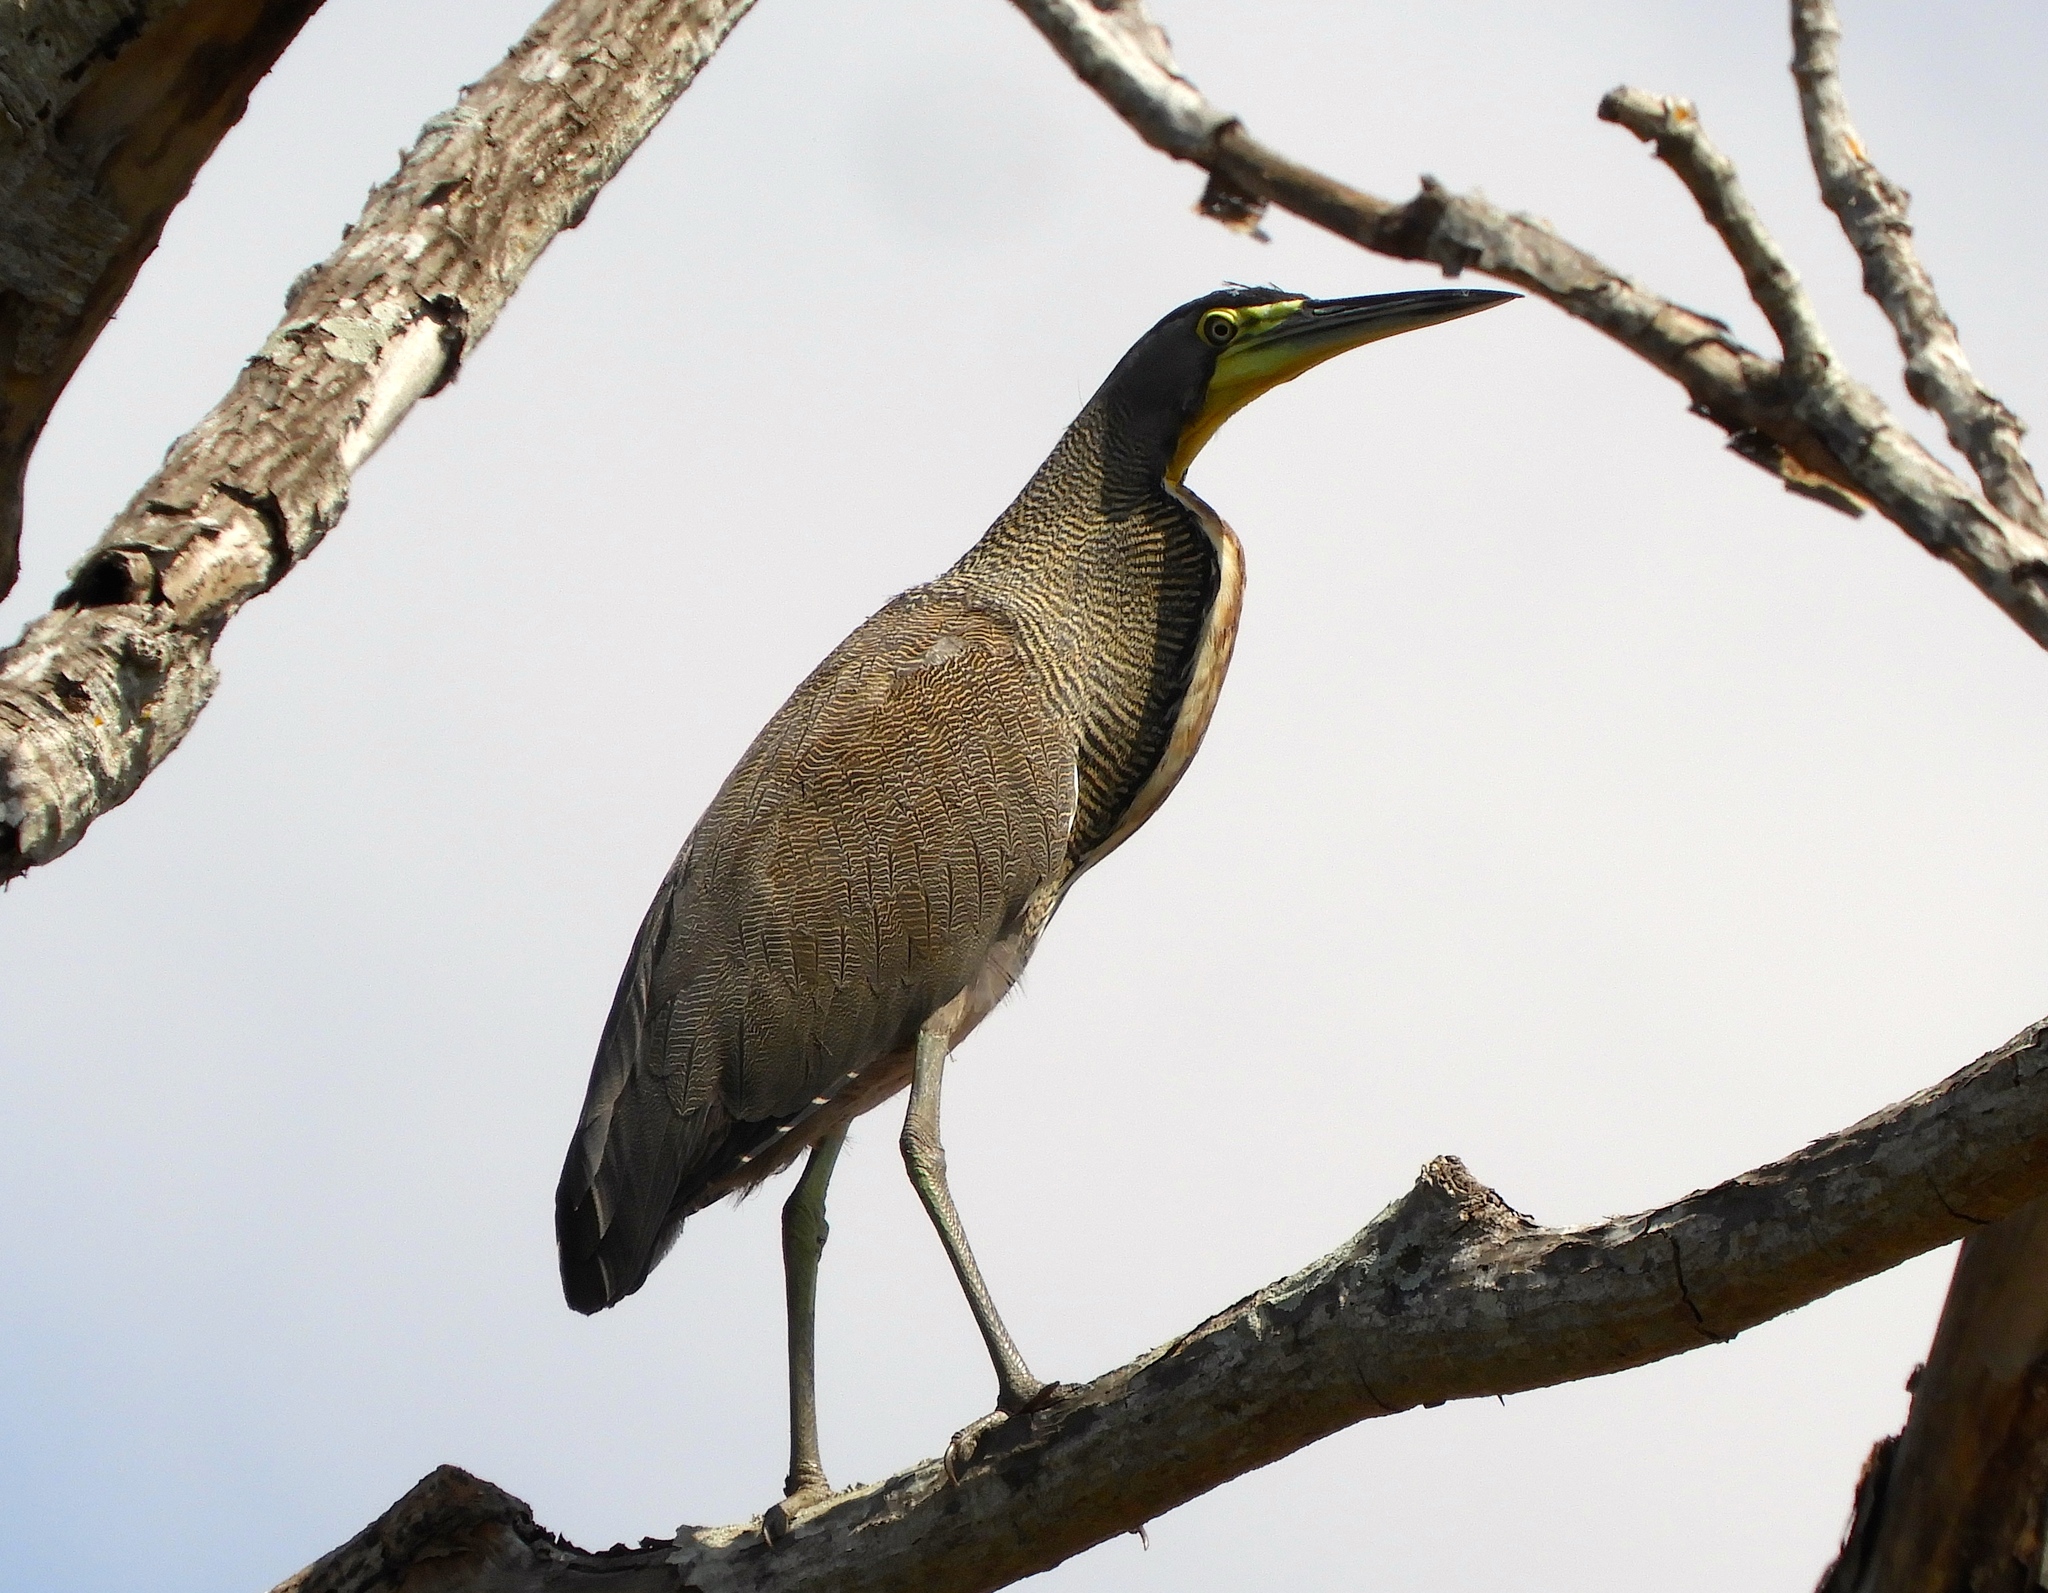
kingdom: Animalia
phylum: Chordata
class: Aves
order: Pelecaniformes
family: Ardeidae
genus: Tigrisoma
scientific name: Tigrisoma mexicanum
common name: Bare-throated tiger-heron
